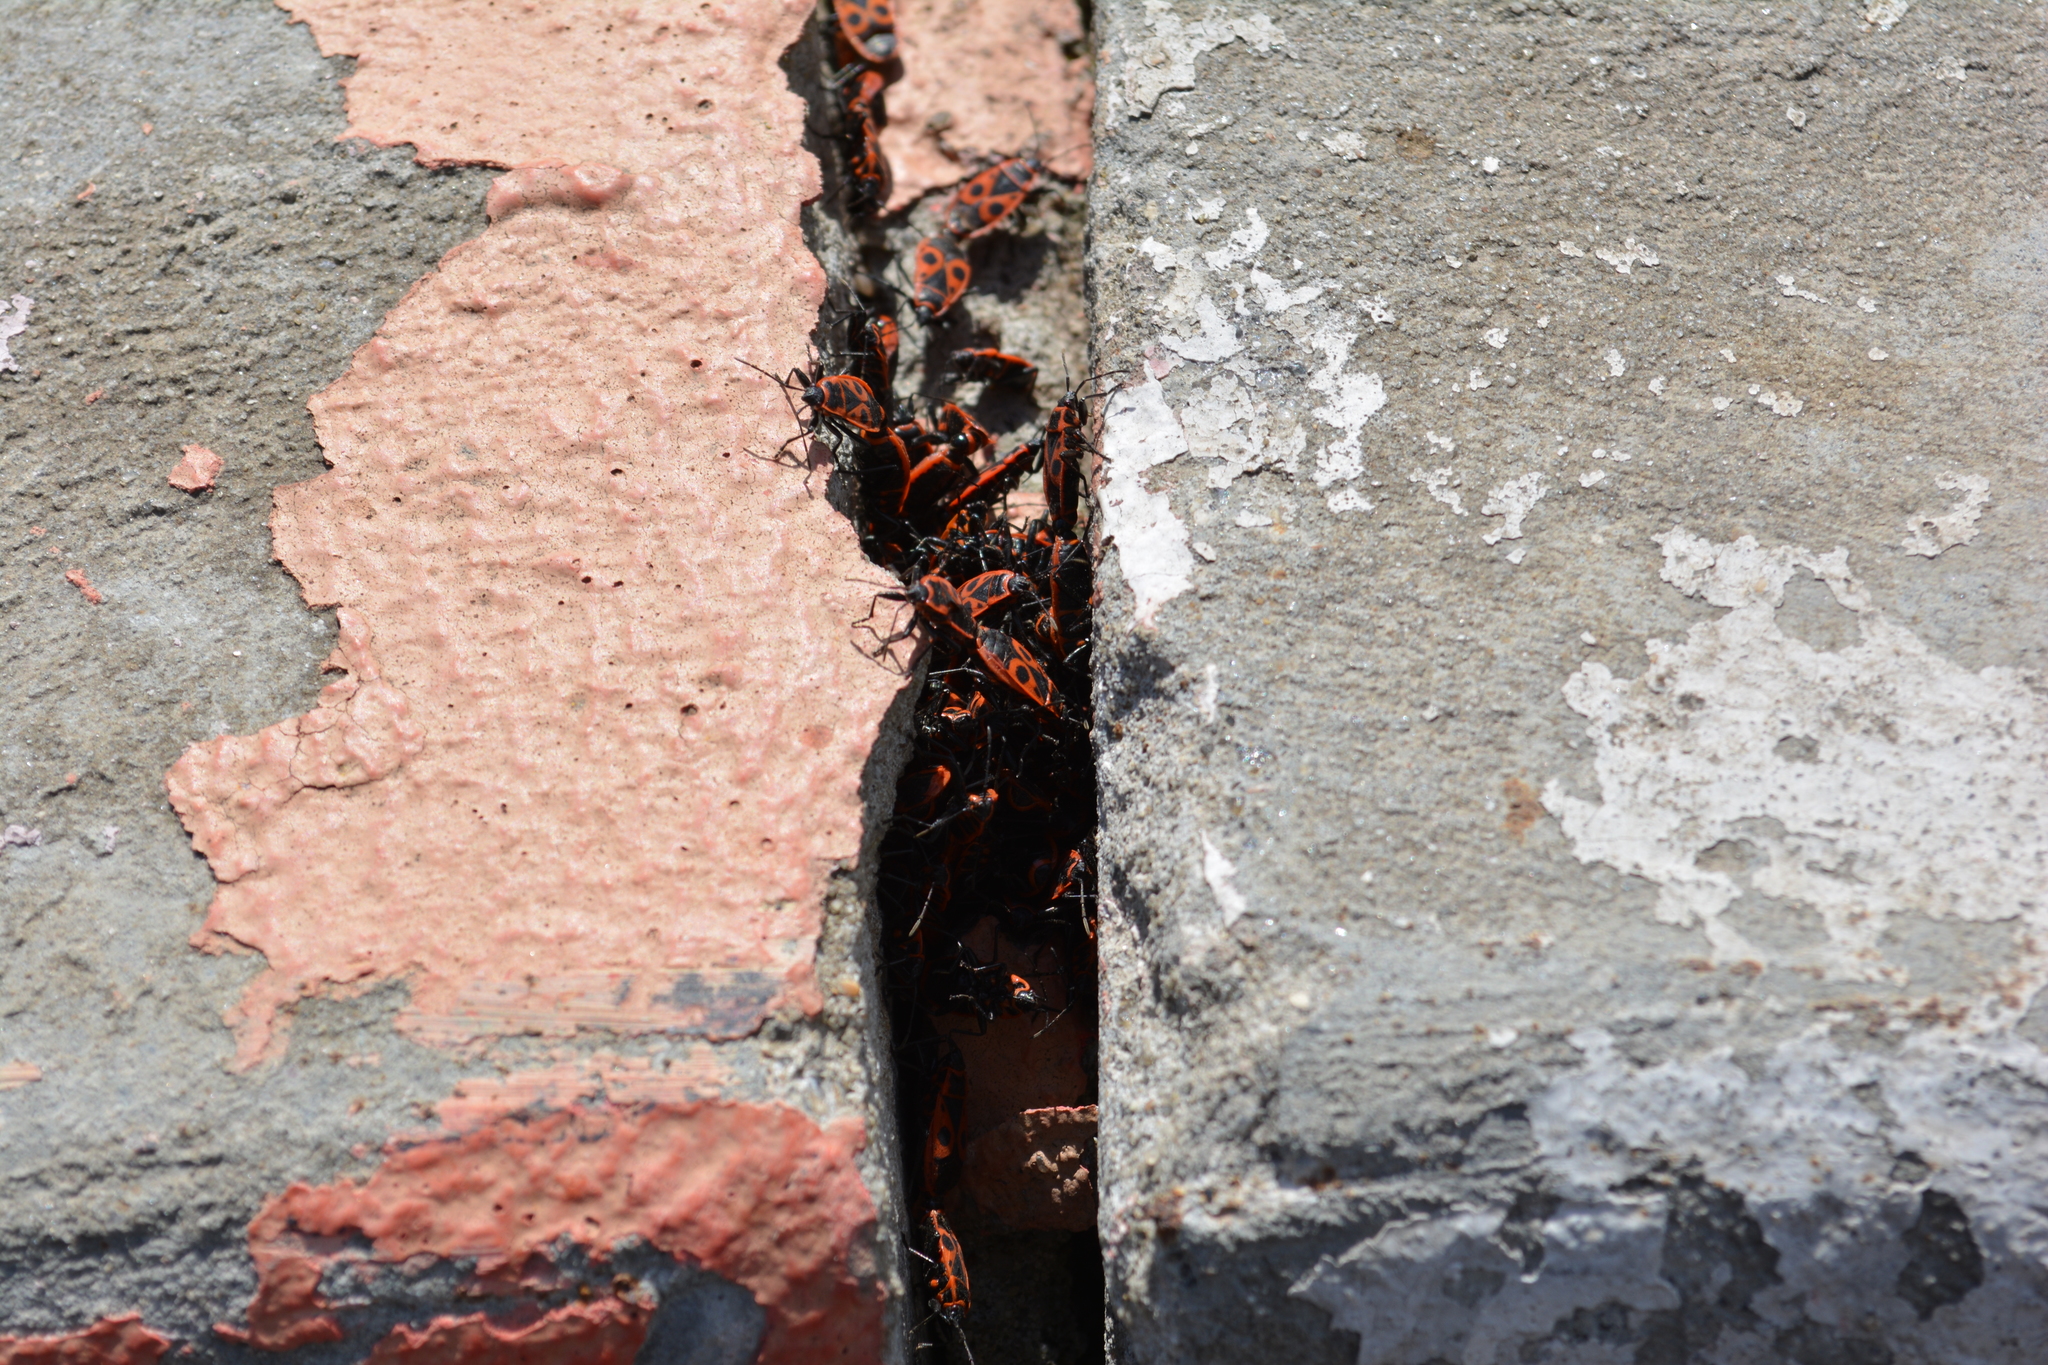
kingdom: Animalia
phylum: Arthropoda
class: Insecta
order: Hemiptera
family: Pyrrhocoridae
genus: Pyrrhocoris
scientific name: Pyrrhocoris apterus
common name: Firebug
